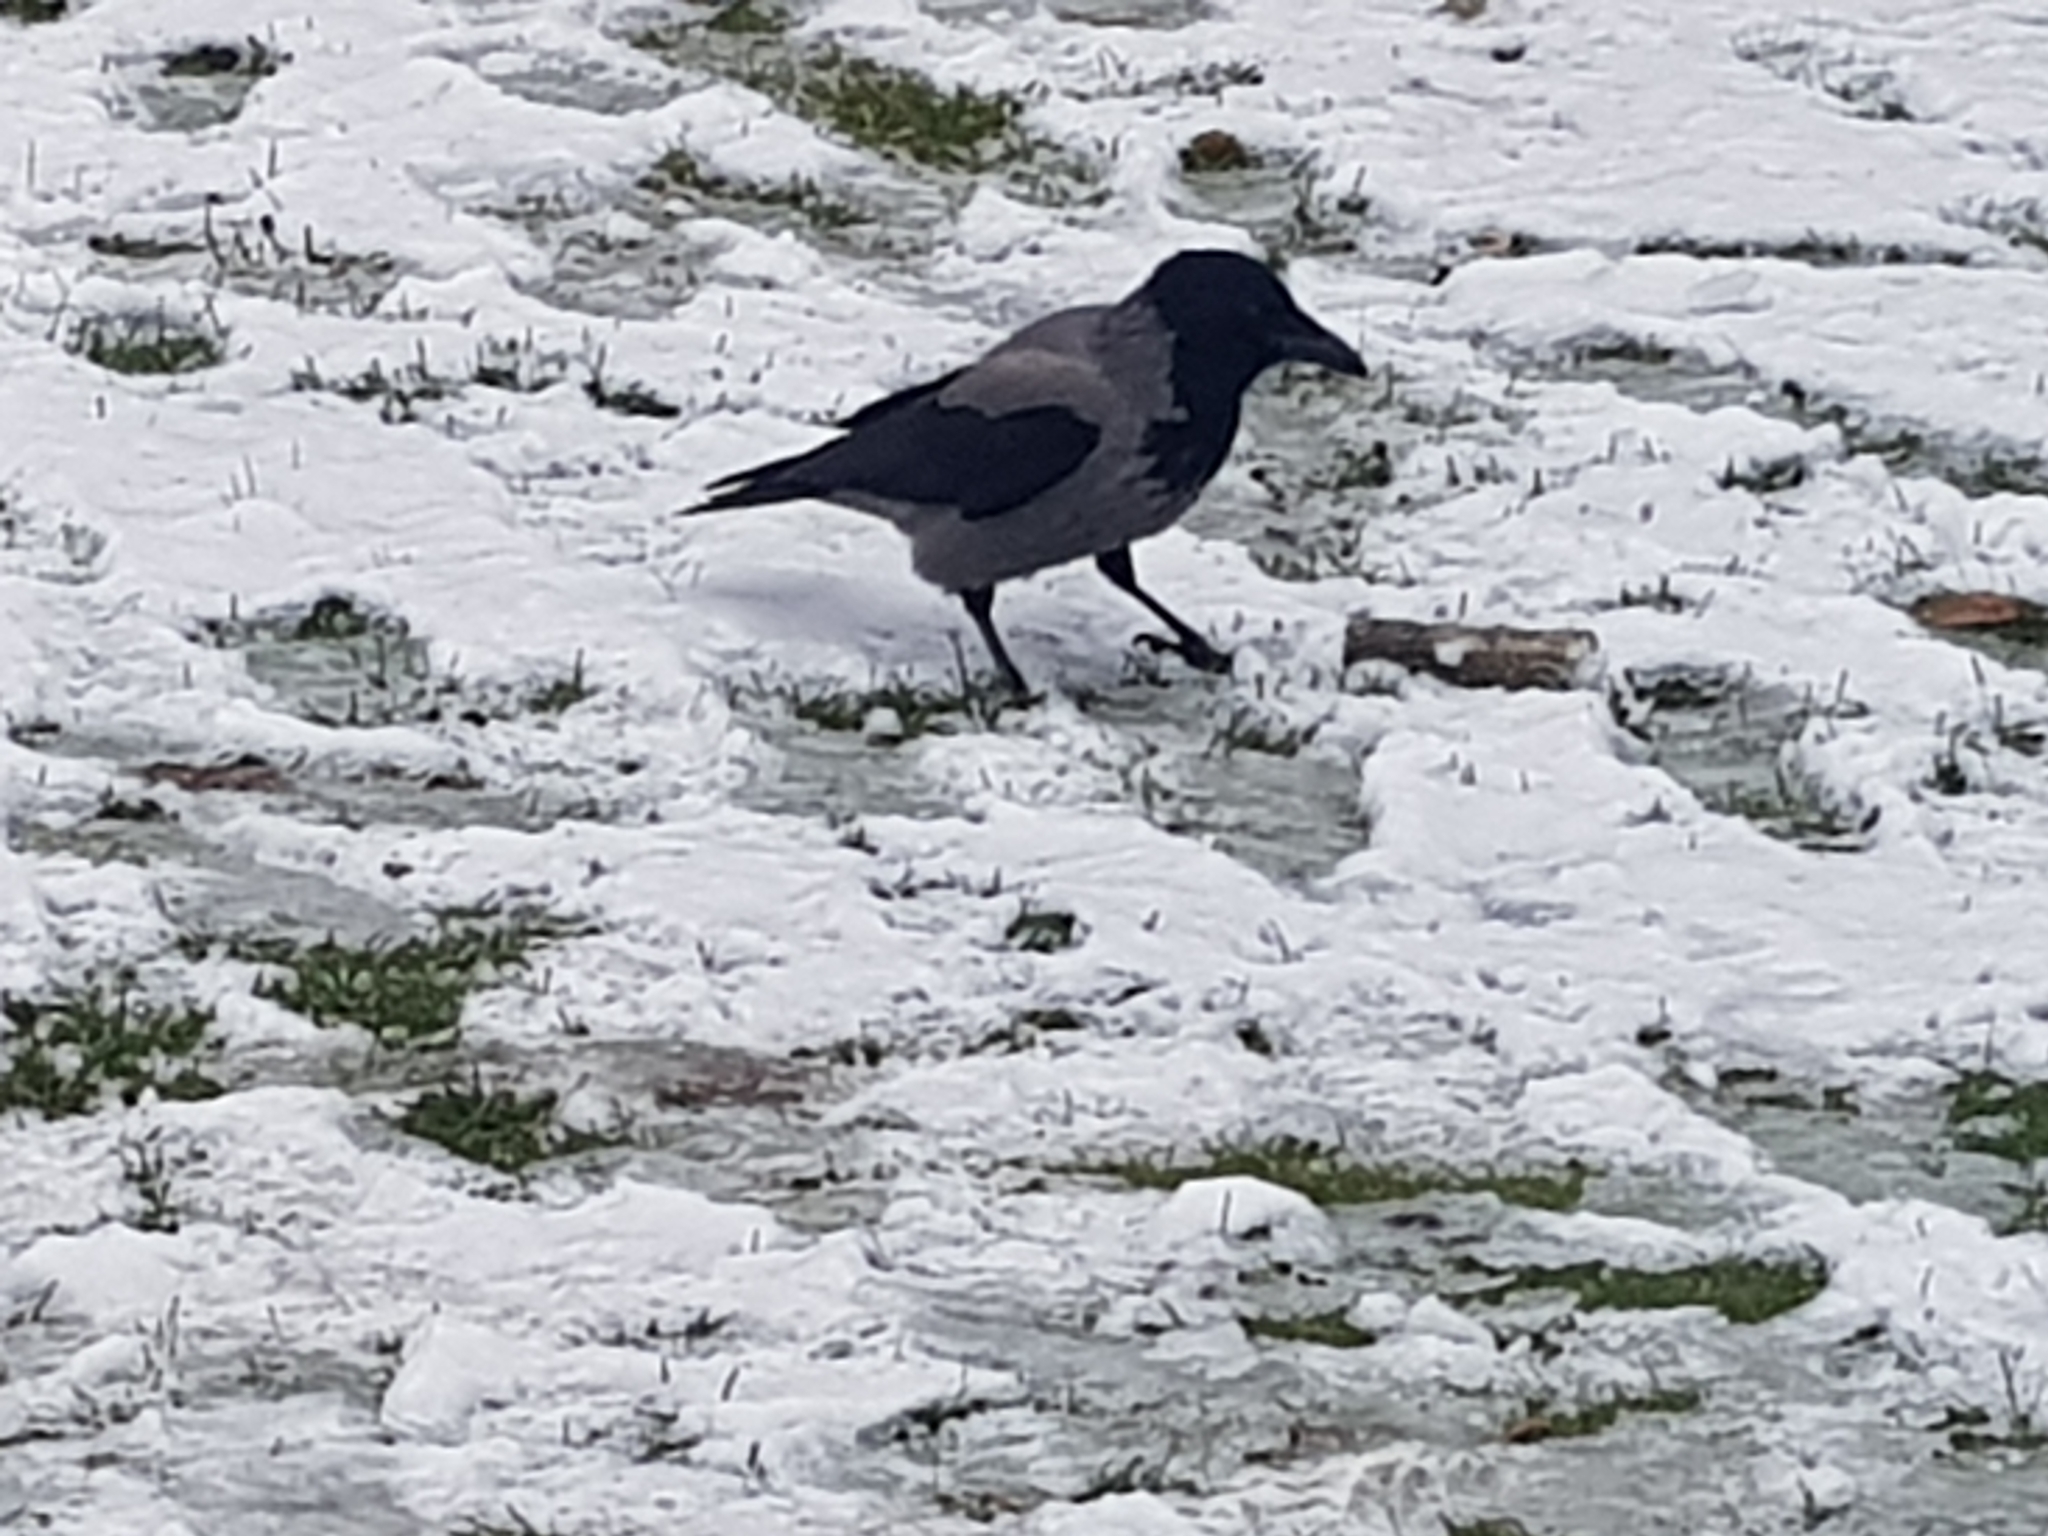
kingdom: Animalia
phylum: Chordata
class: Aves
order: Passeriformes
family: Corvidae
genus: Corvus
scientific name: Corvus cornix
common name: Hooded crow
